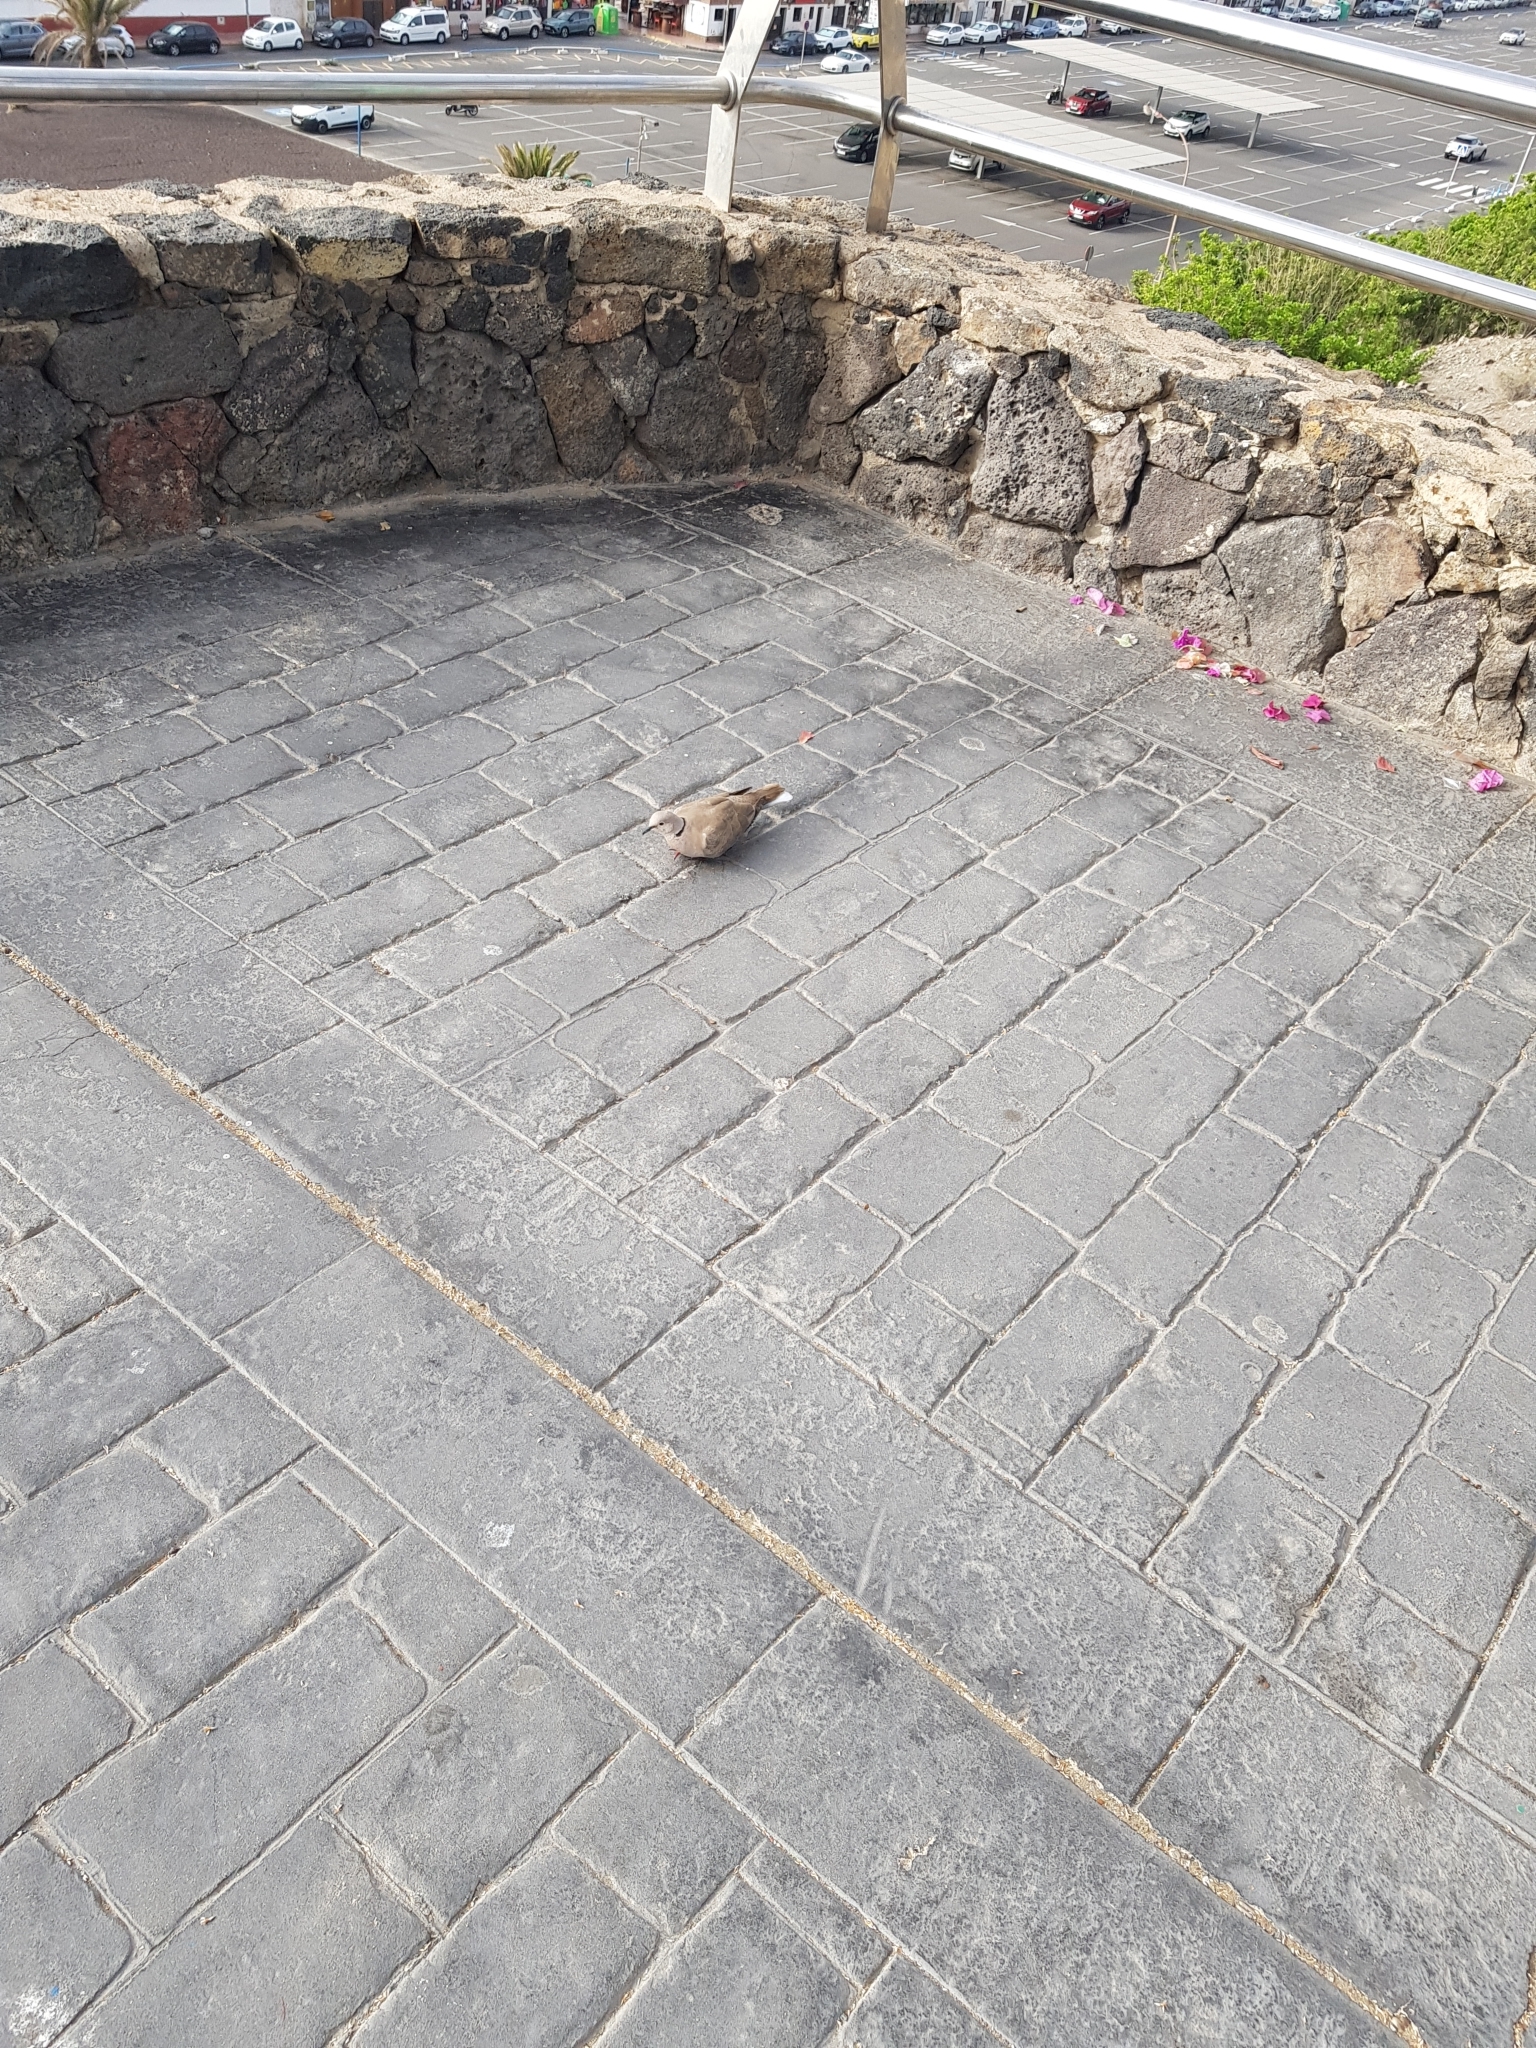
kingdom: Animalia
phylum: Chordata
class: Aves
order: Columbiformes
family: Columbidae
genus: Streptopelia
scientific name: Streptopelia decaocto
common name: Eurasian collared dove
